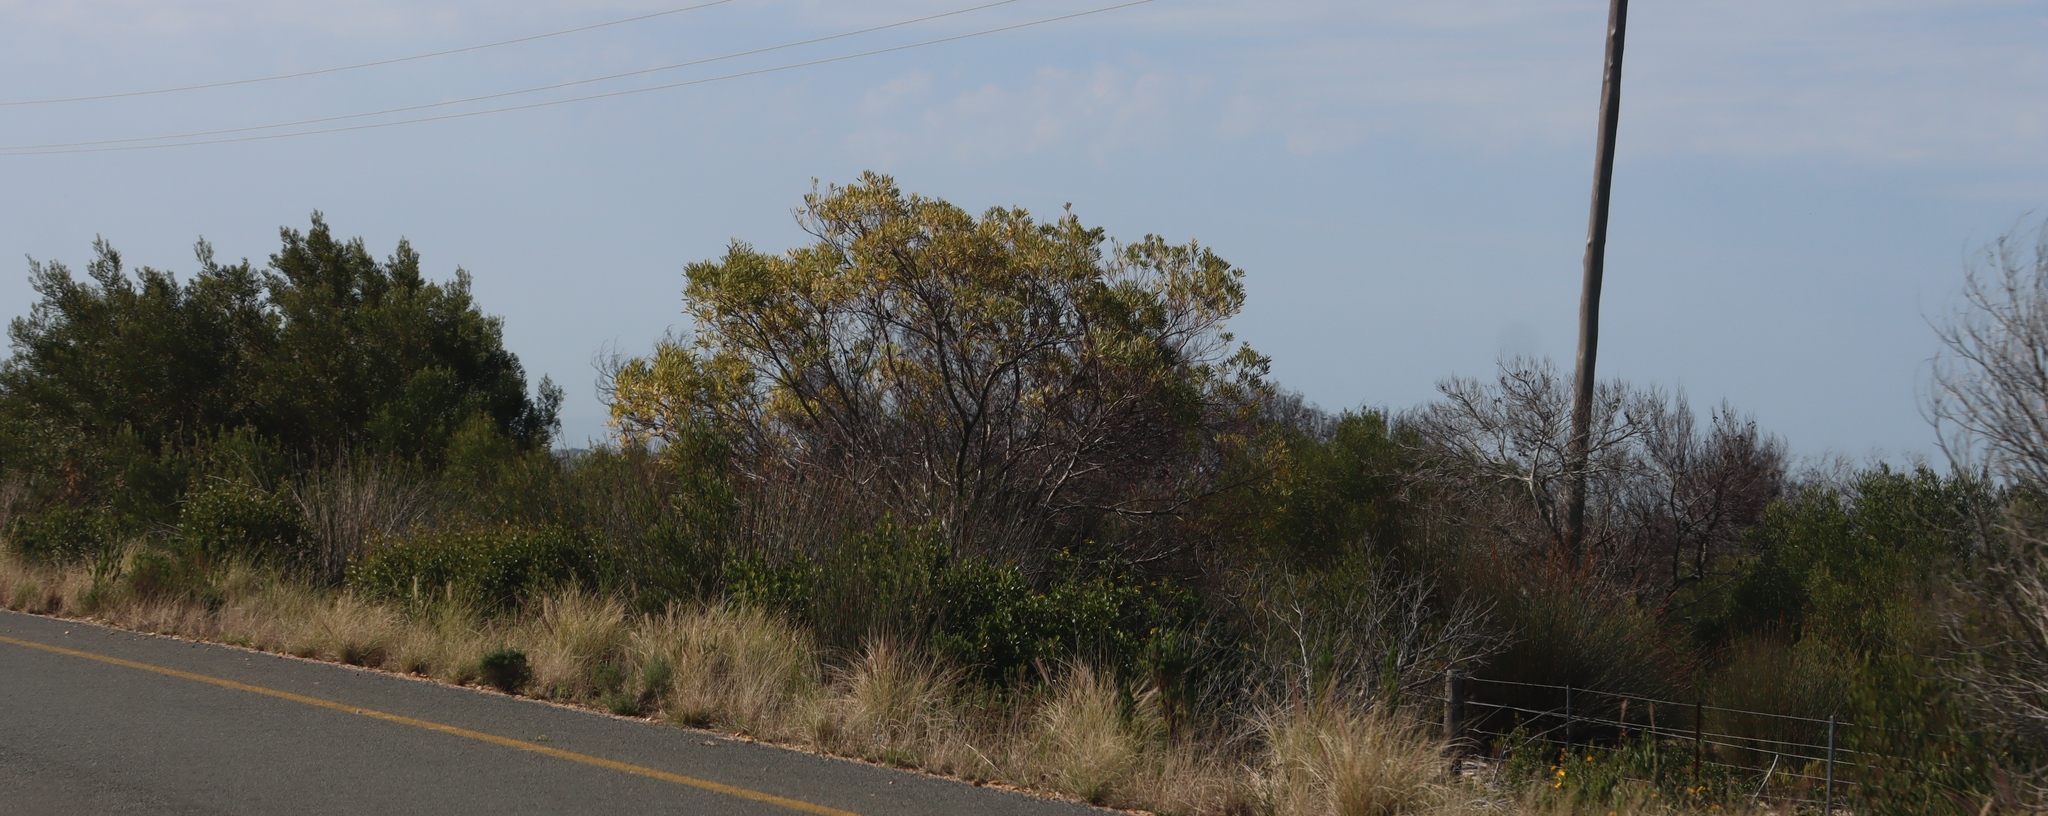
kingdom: Plantae
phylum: Tracheophyta
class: Magnoliopsida
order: Fabales
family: Fabaceae
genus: Acacia
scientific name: Acacia cyclops
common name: Coastal wattle
